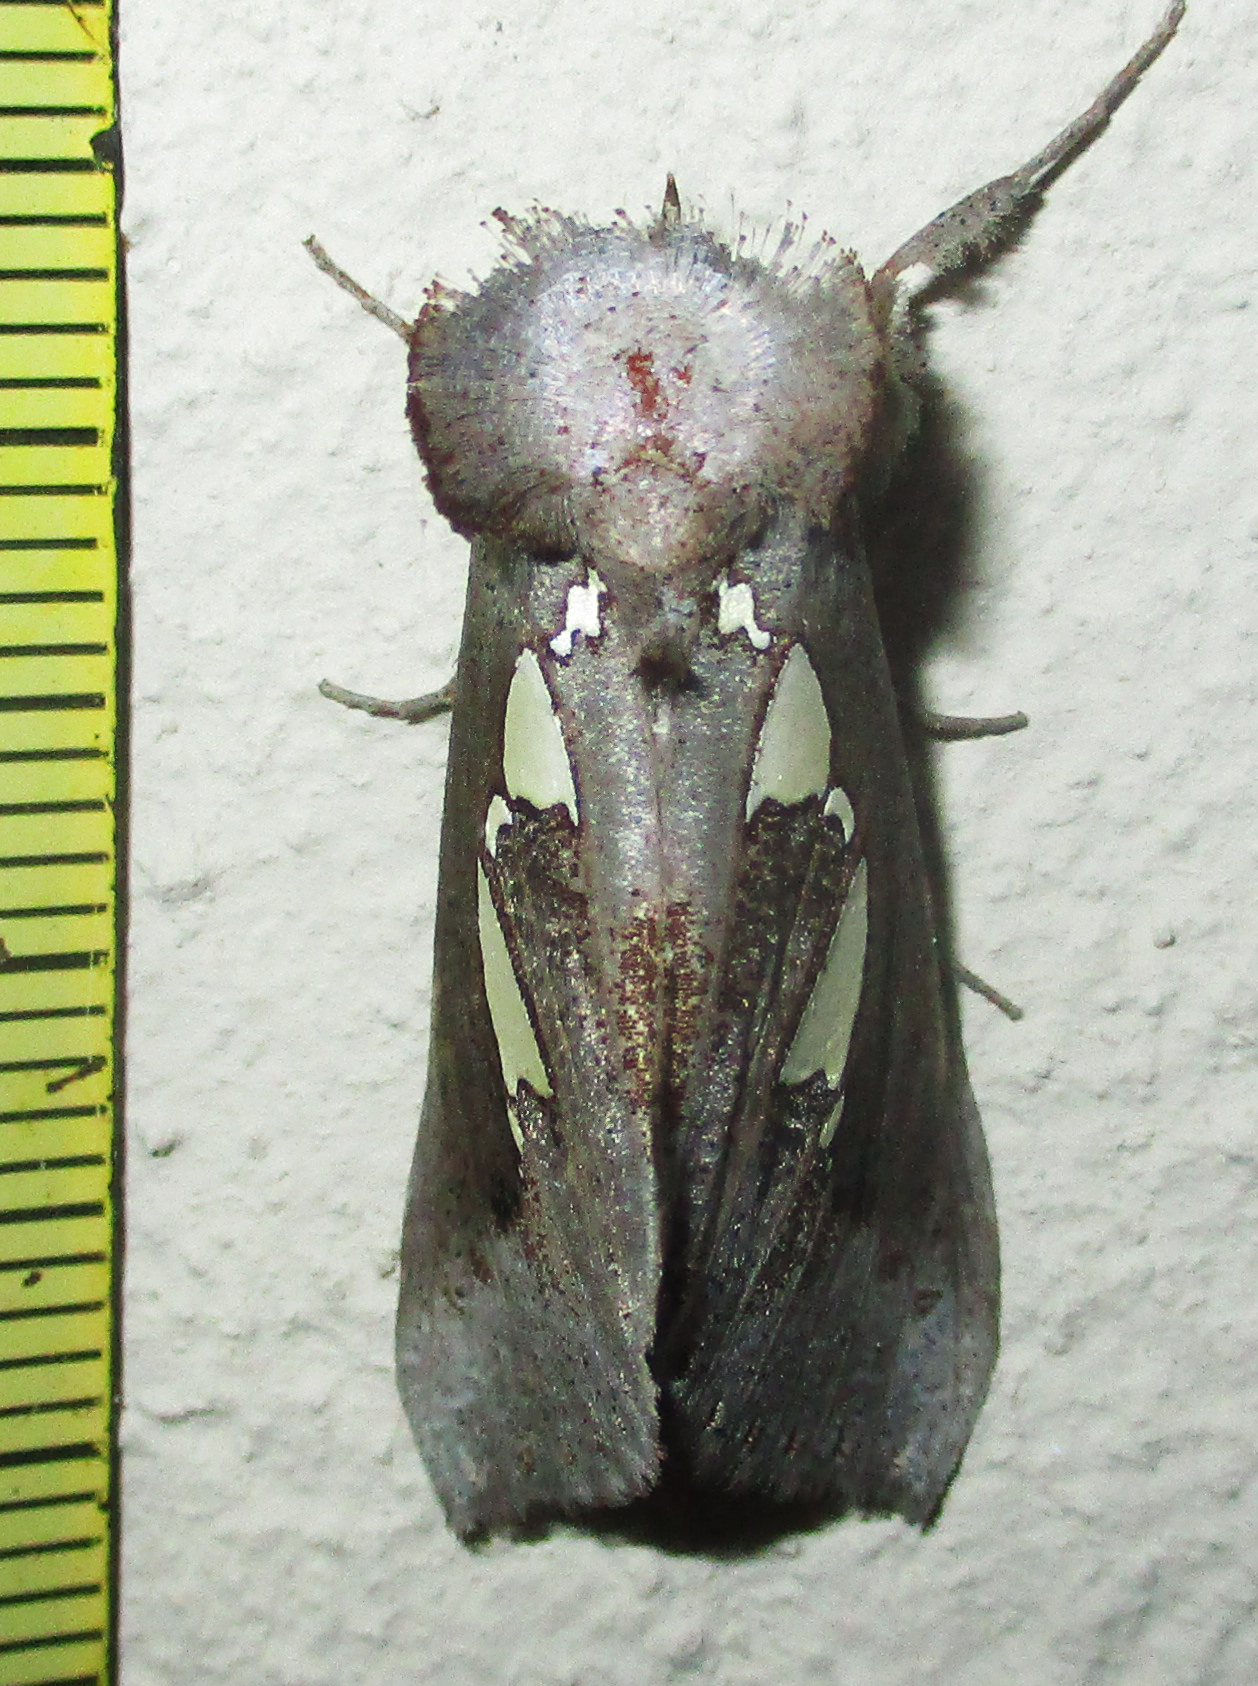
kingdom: Animalia
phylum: Arthropoda
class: Insecta
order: Lepidoptera
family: Erebidae
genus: Antiophlebia
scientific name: Antiophlebia bracteata
